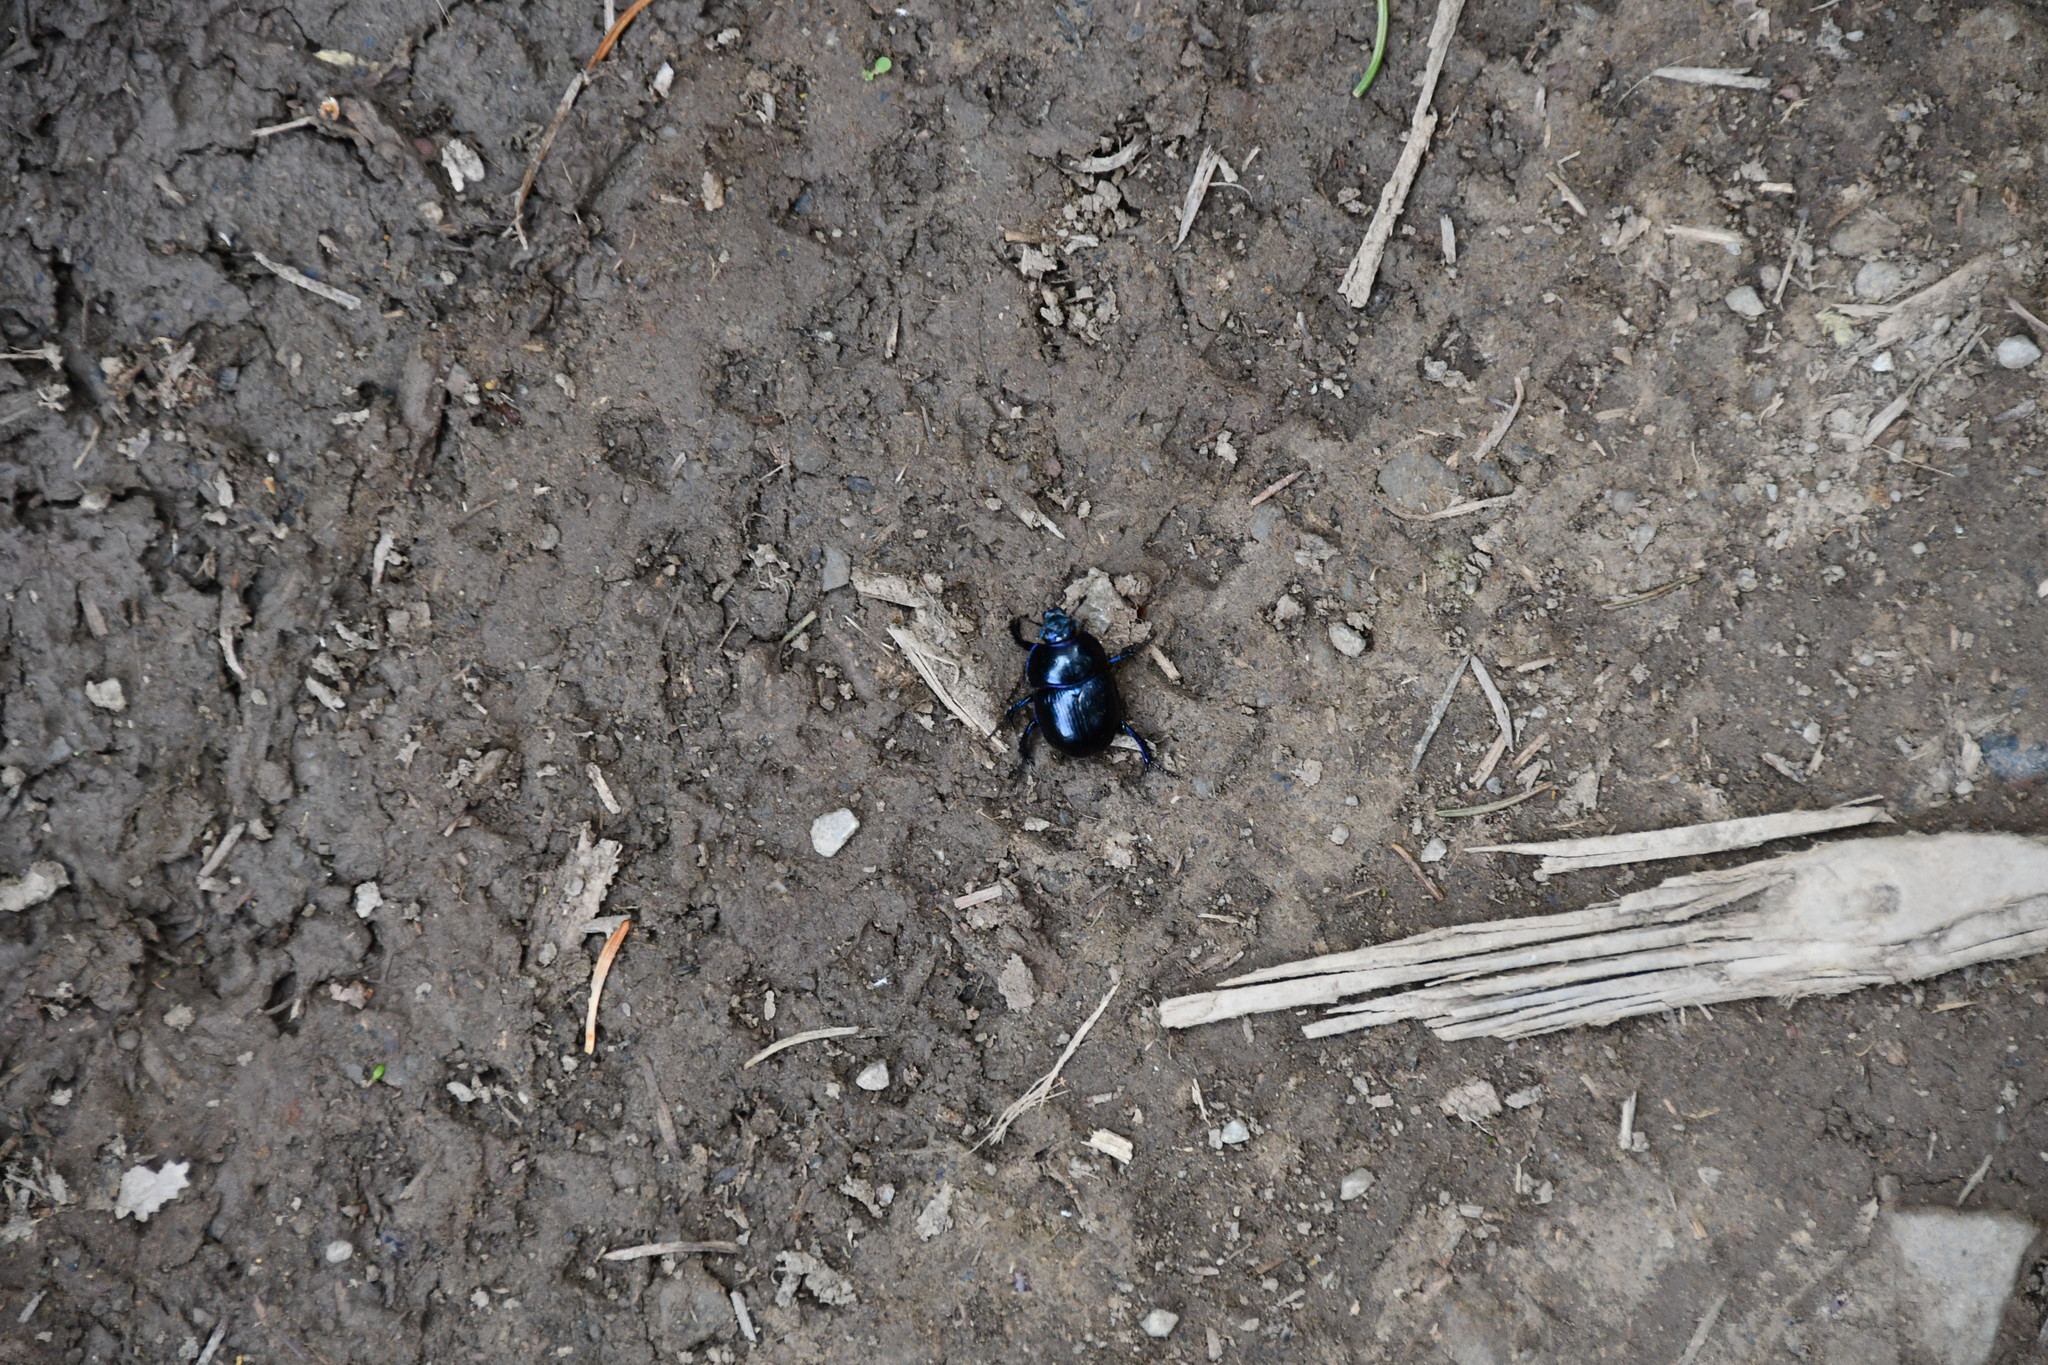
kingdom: Animalia
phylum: Arthropoda
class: Insecta
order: Coleoptera
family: Geotrupidae
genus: Anoplotrupes
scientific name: Anoplotrupes stercorosus
